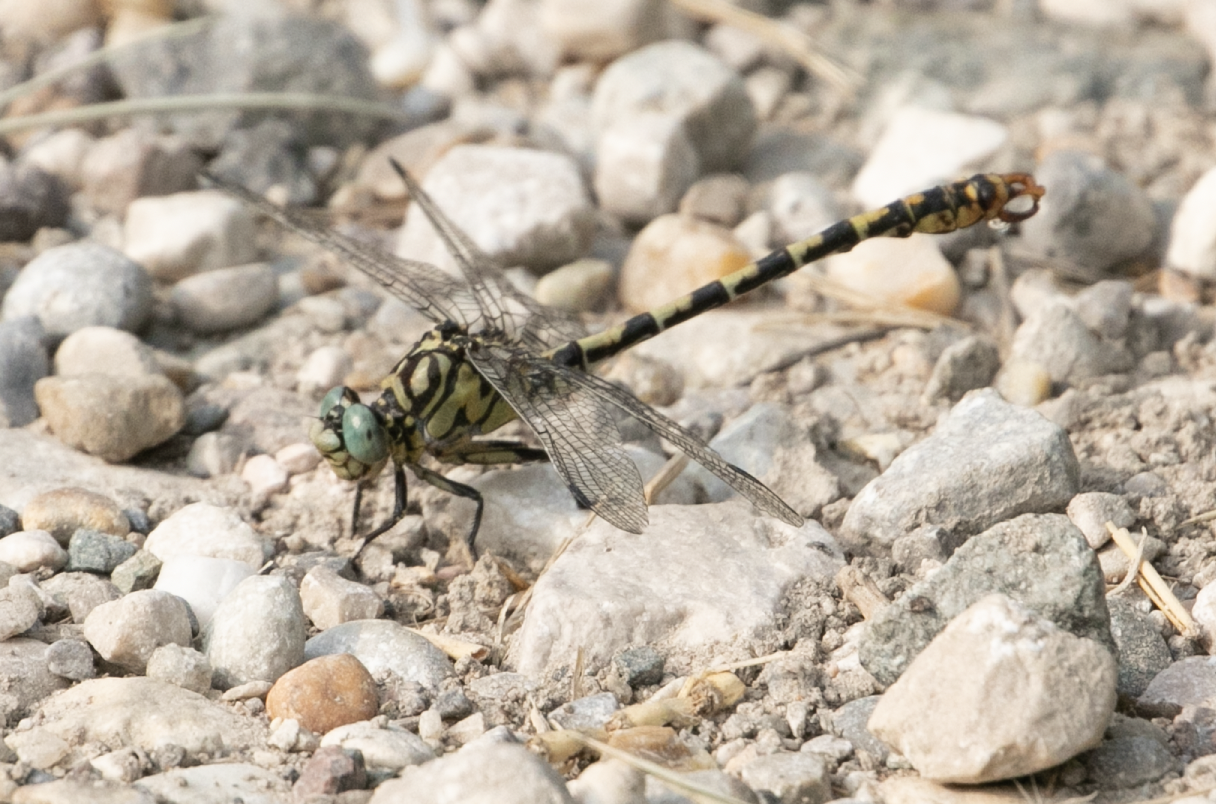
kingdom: Animalia
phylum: Arthropoda
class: Insecta
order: Odonata
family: Gomphidae
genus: Onychogomphus
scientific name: Onychogomphus forcipatus
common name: Small pincertail
